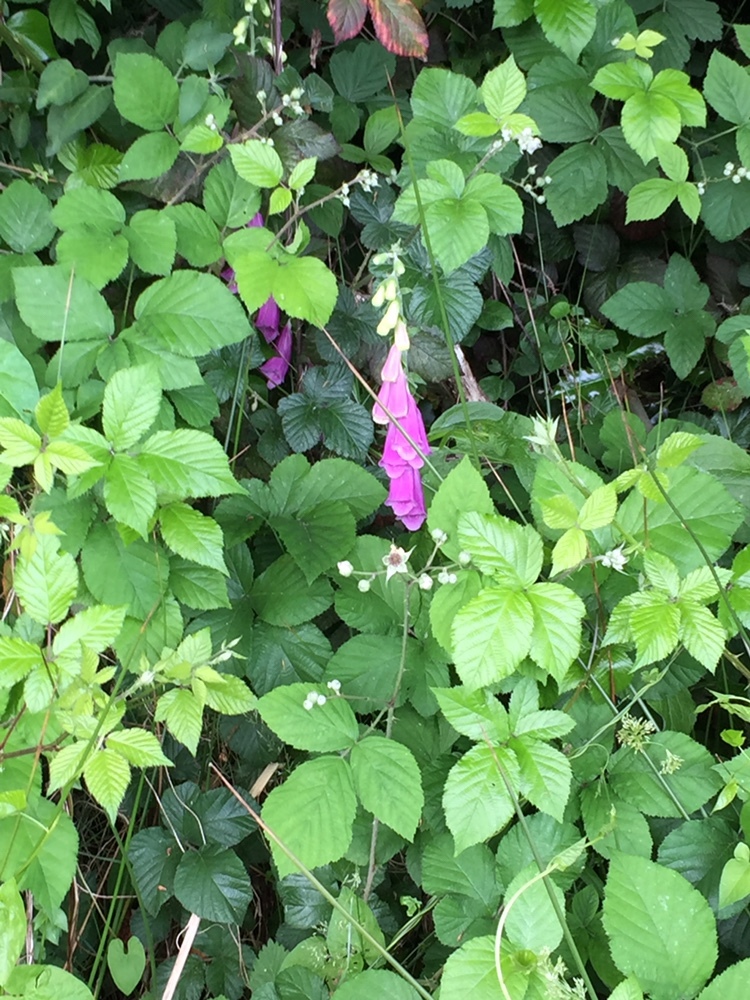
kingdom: Plantae
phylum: Tracheophyta
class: Magnoliopsida
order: Lamiales
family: Plantaginaceae
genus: Digitalis
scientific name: Digitalis purpurea
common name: Foxglove
